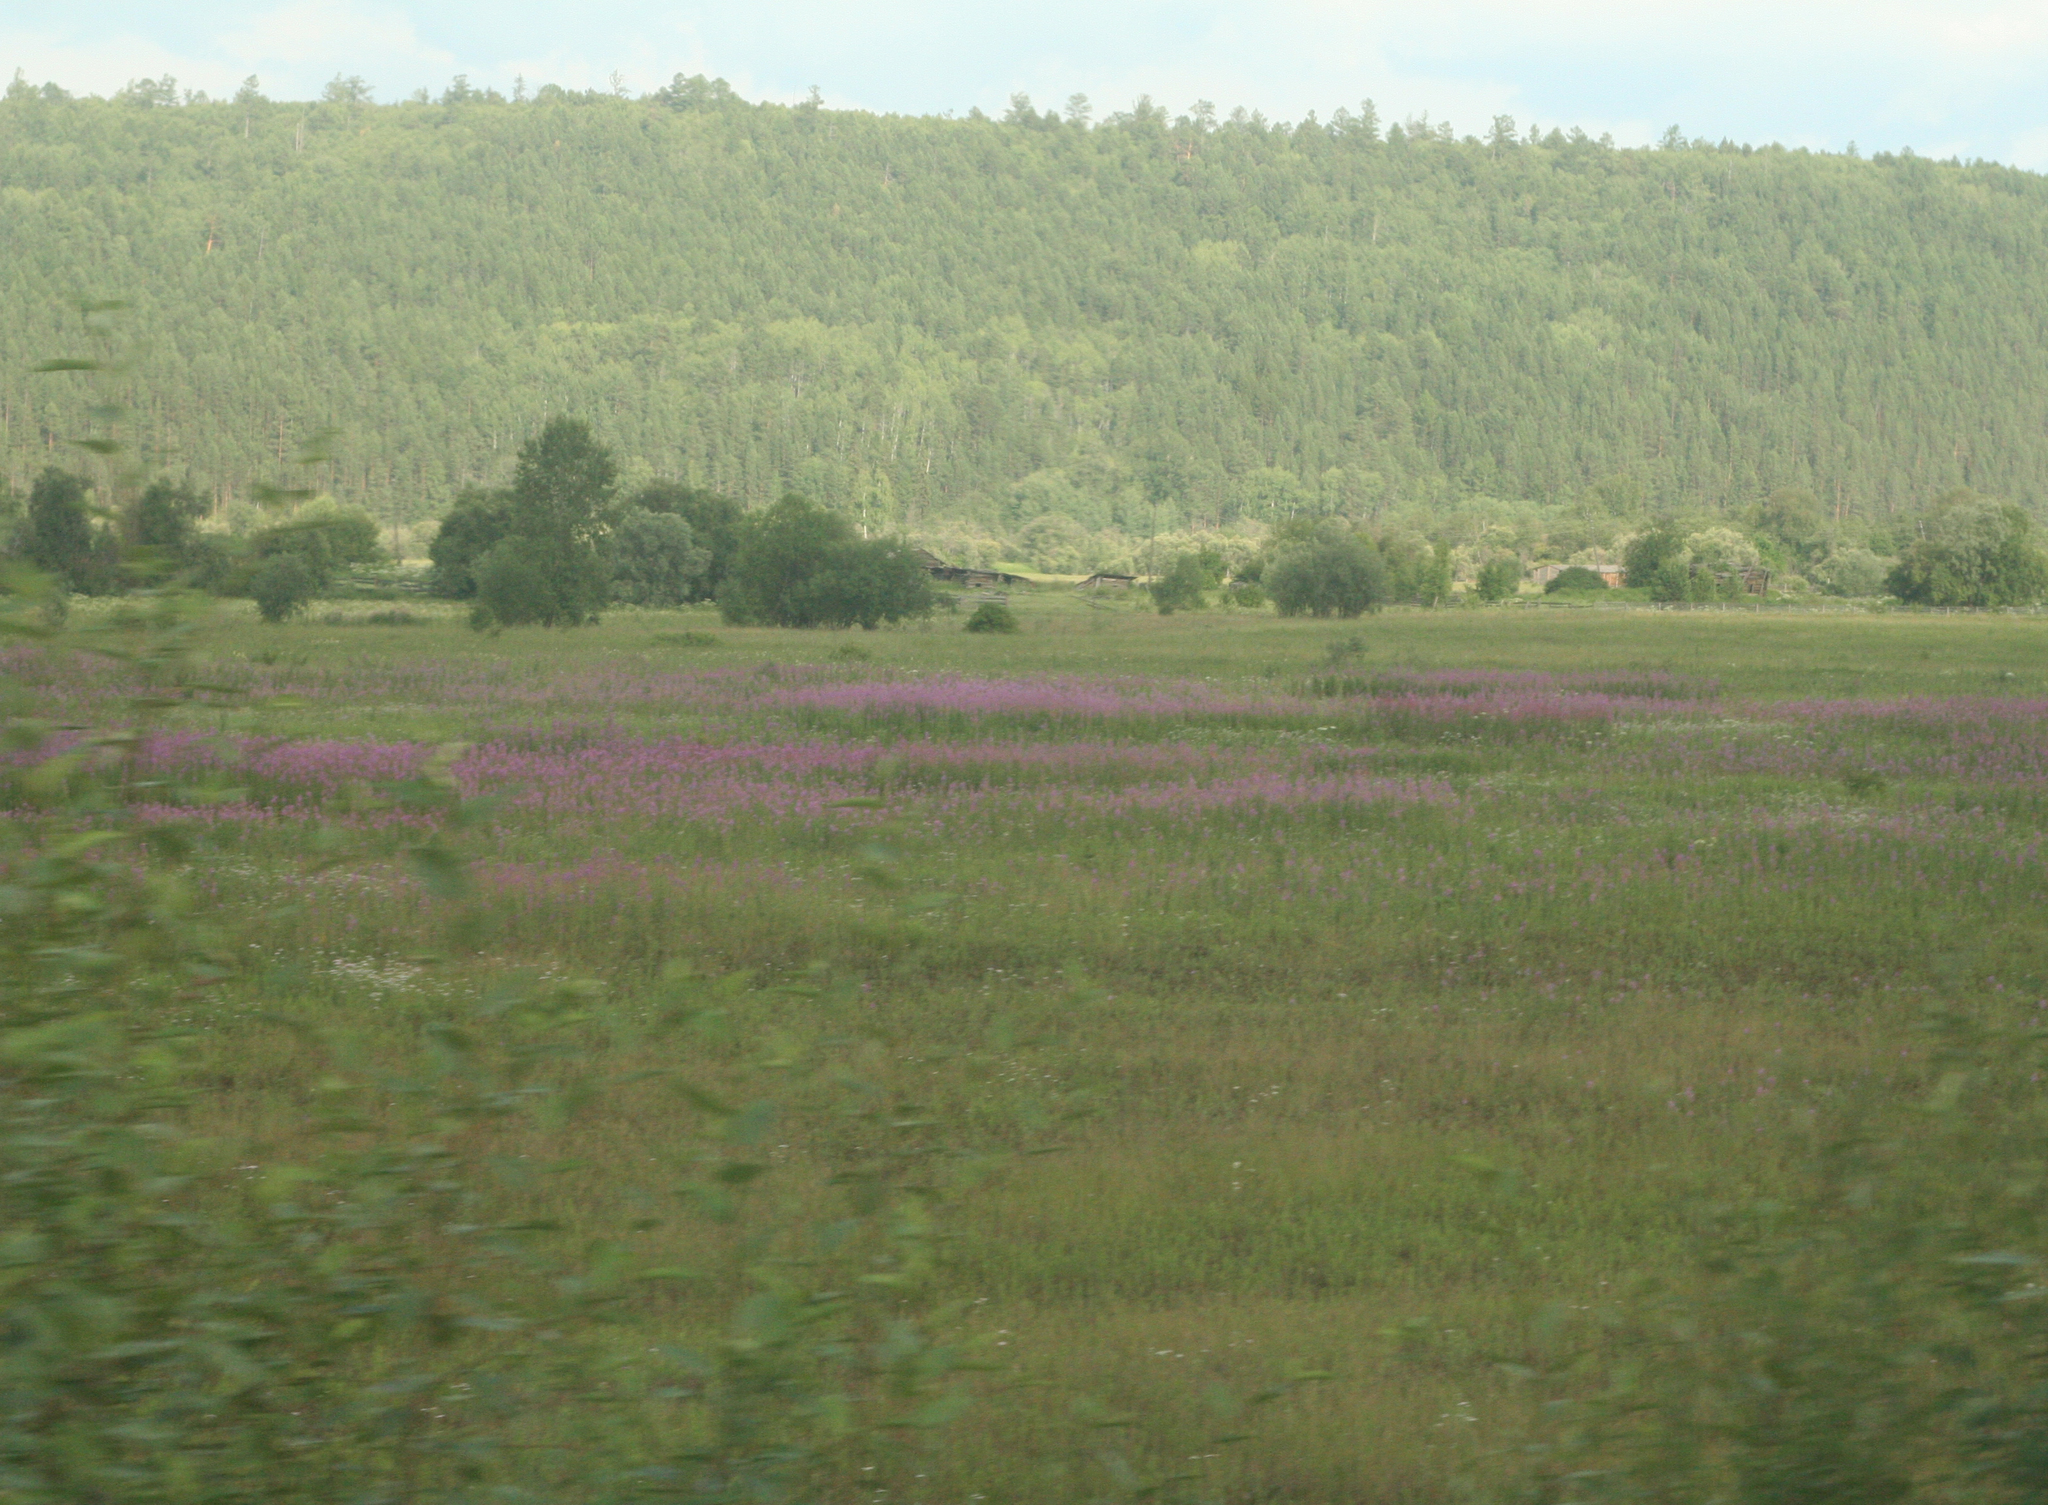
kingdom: Plantae
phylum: Tracheophyta
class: Magnoliopsida
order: Myrtales
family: Onagraceae
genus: Chamaenerion
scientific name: Chamaenerion angustifolium
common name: Fireweed
